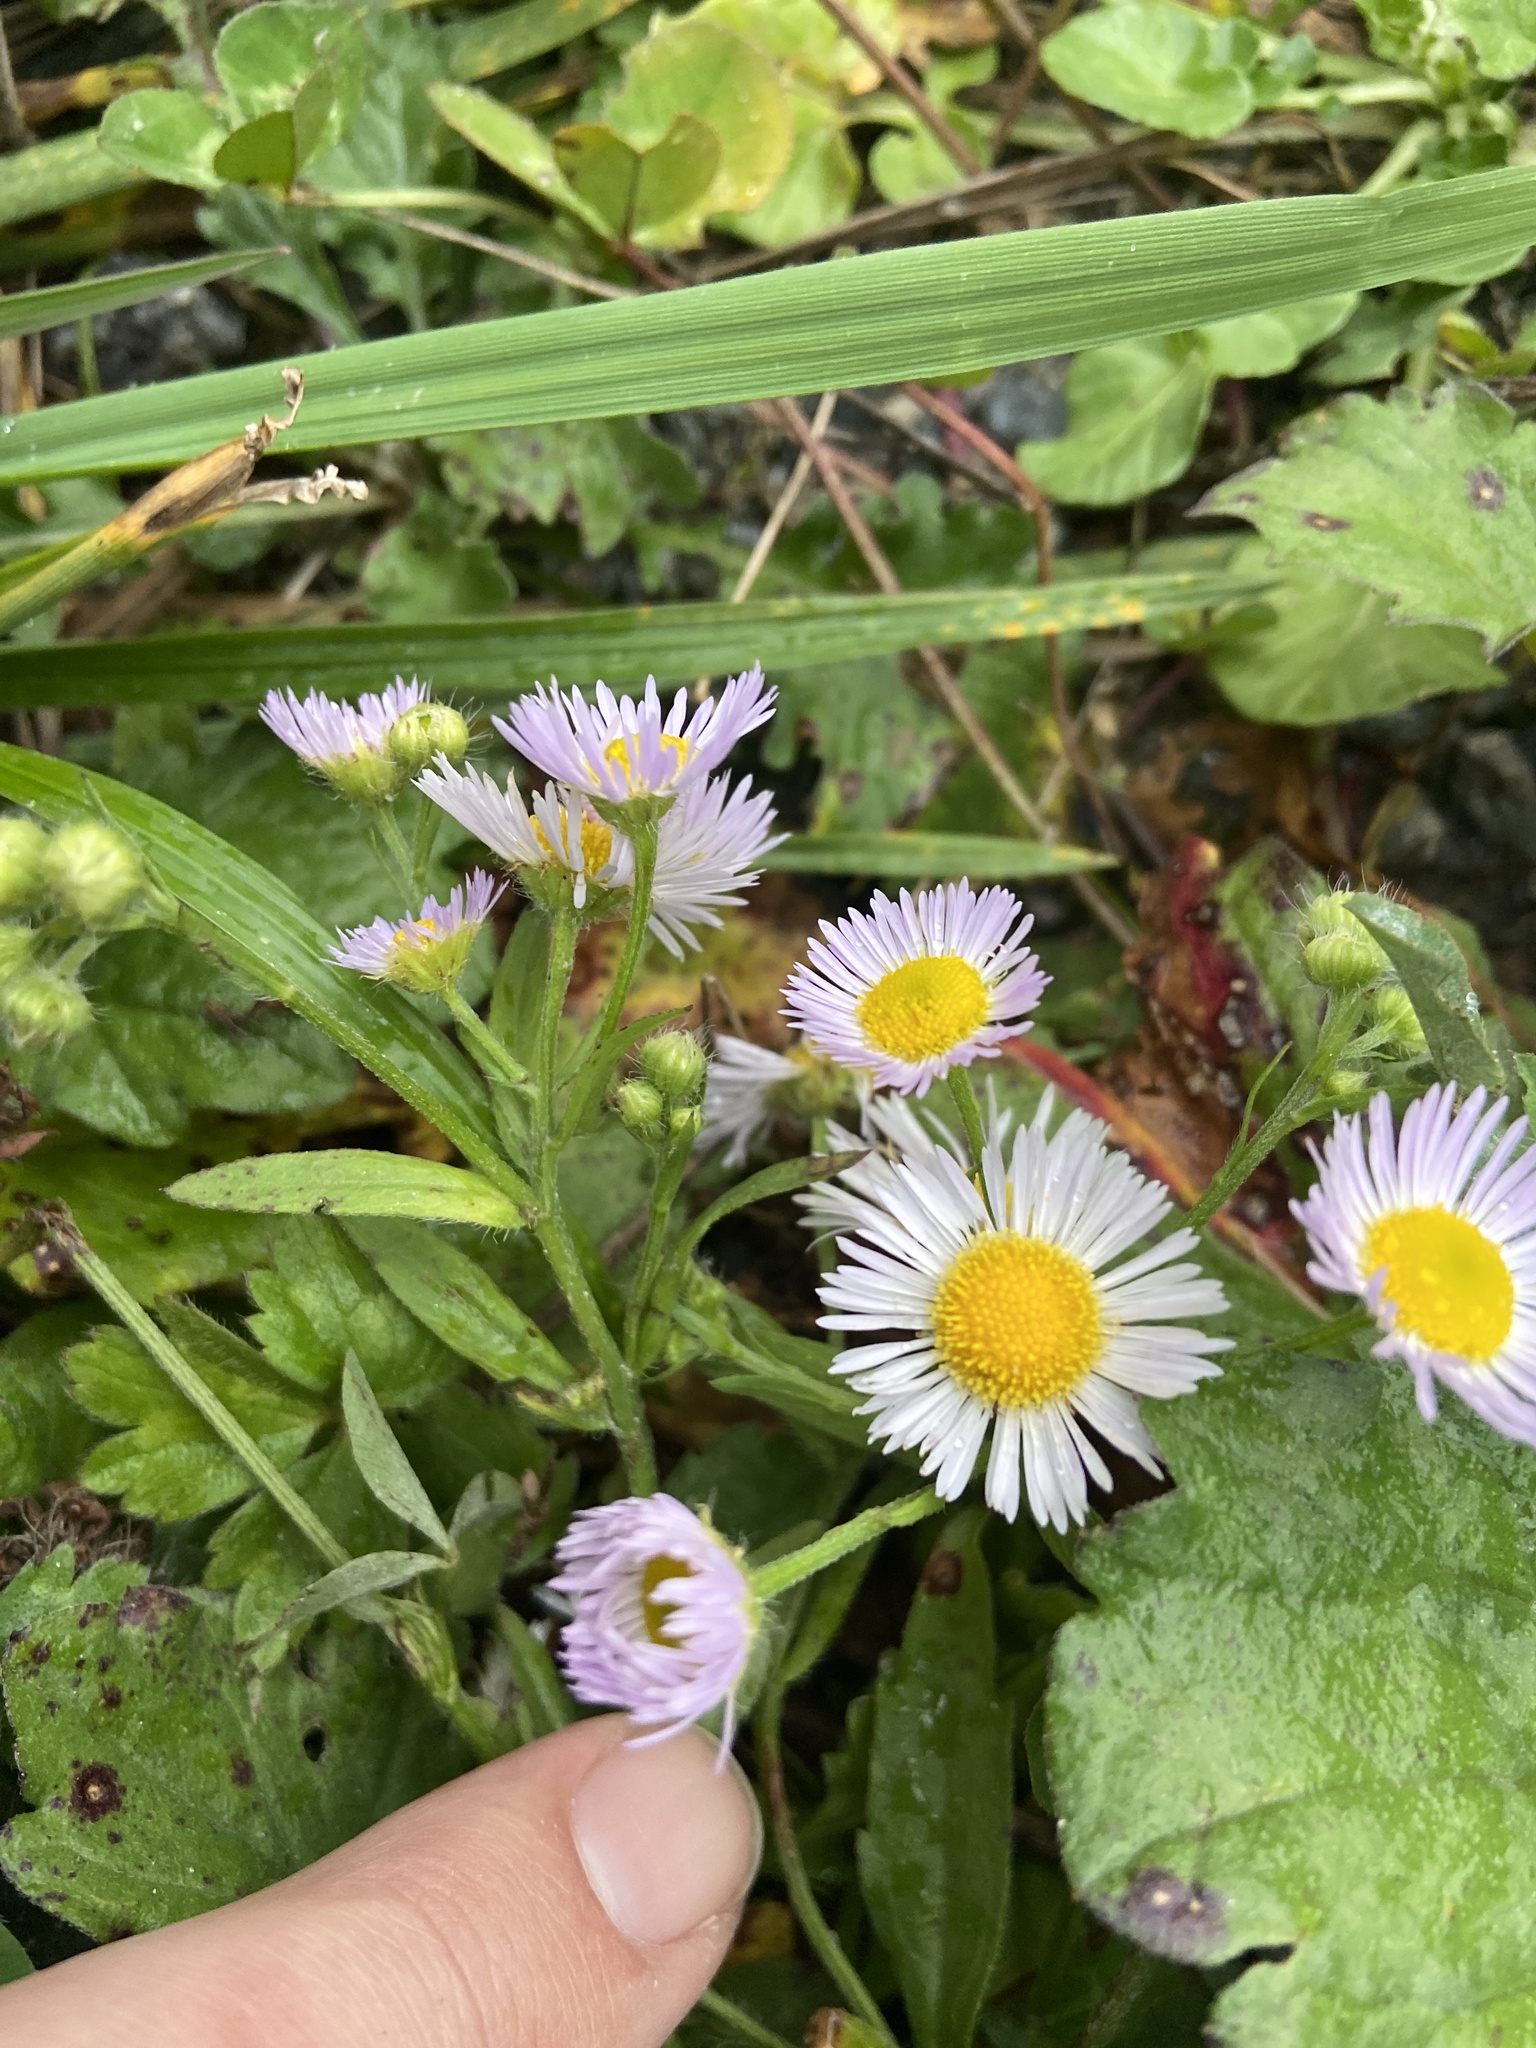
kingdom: Plantae
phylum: Tracheophyta
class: Magnoliopsida
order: Asterales
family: Asteraceae
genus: Erigeron
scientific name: Erigeron annuus
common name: Tall fleabane
